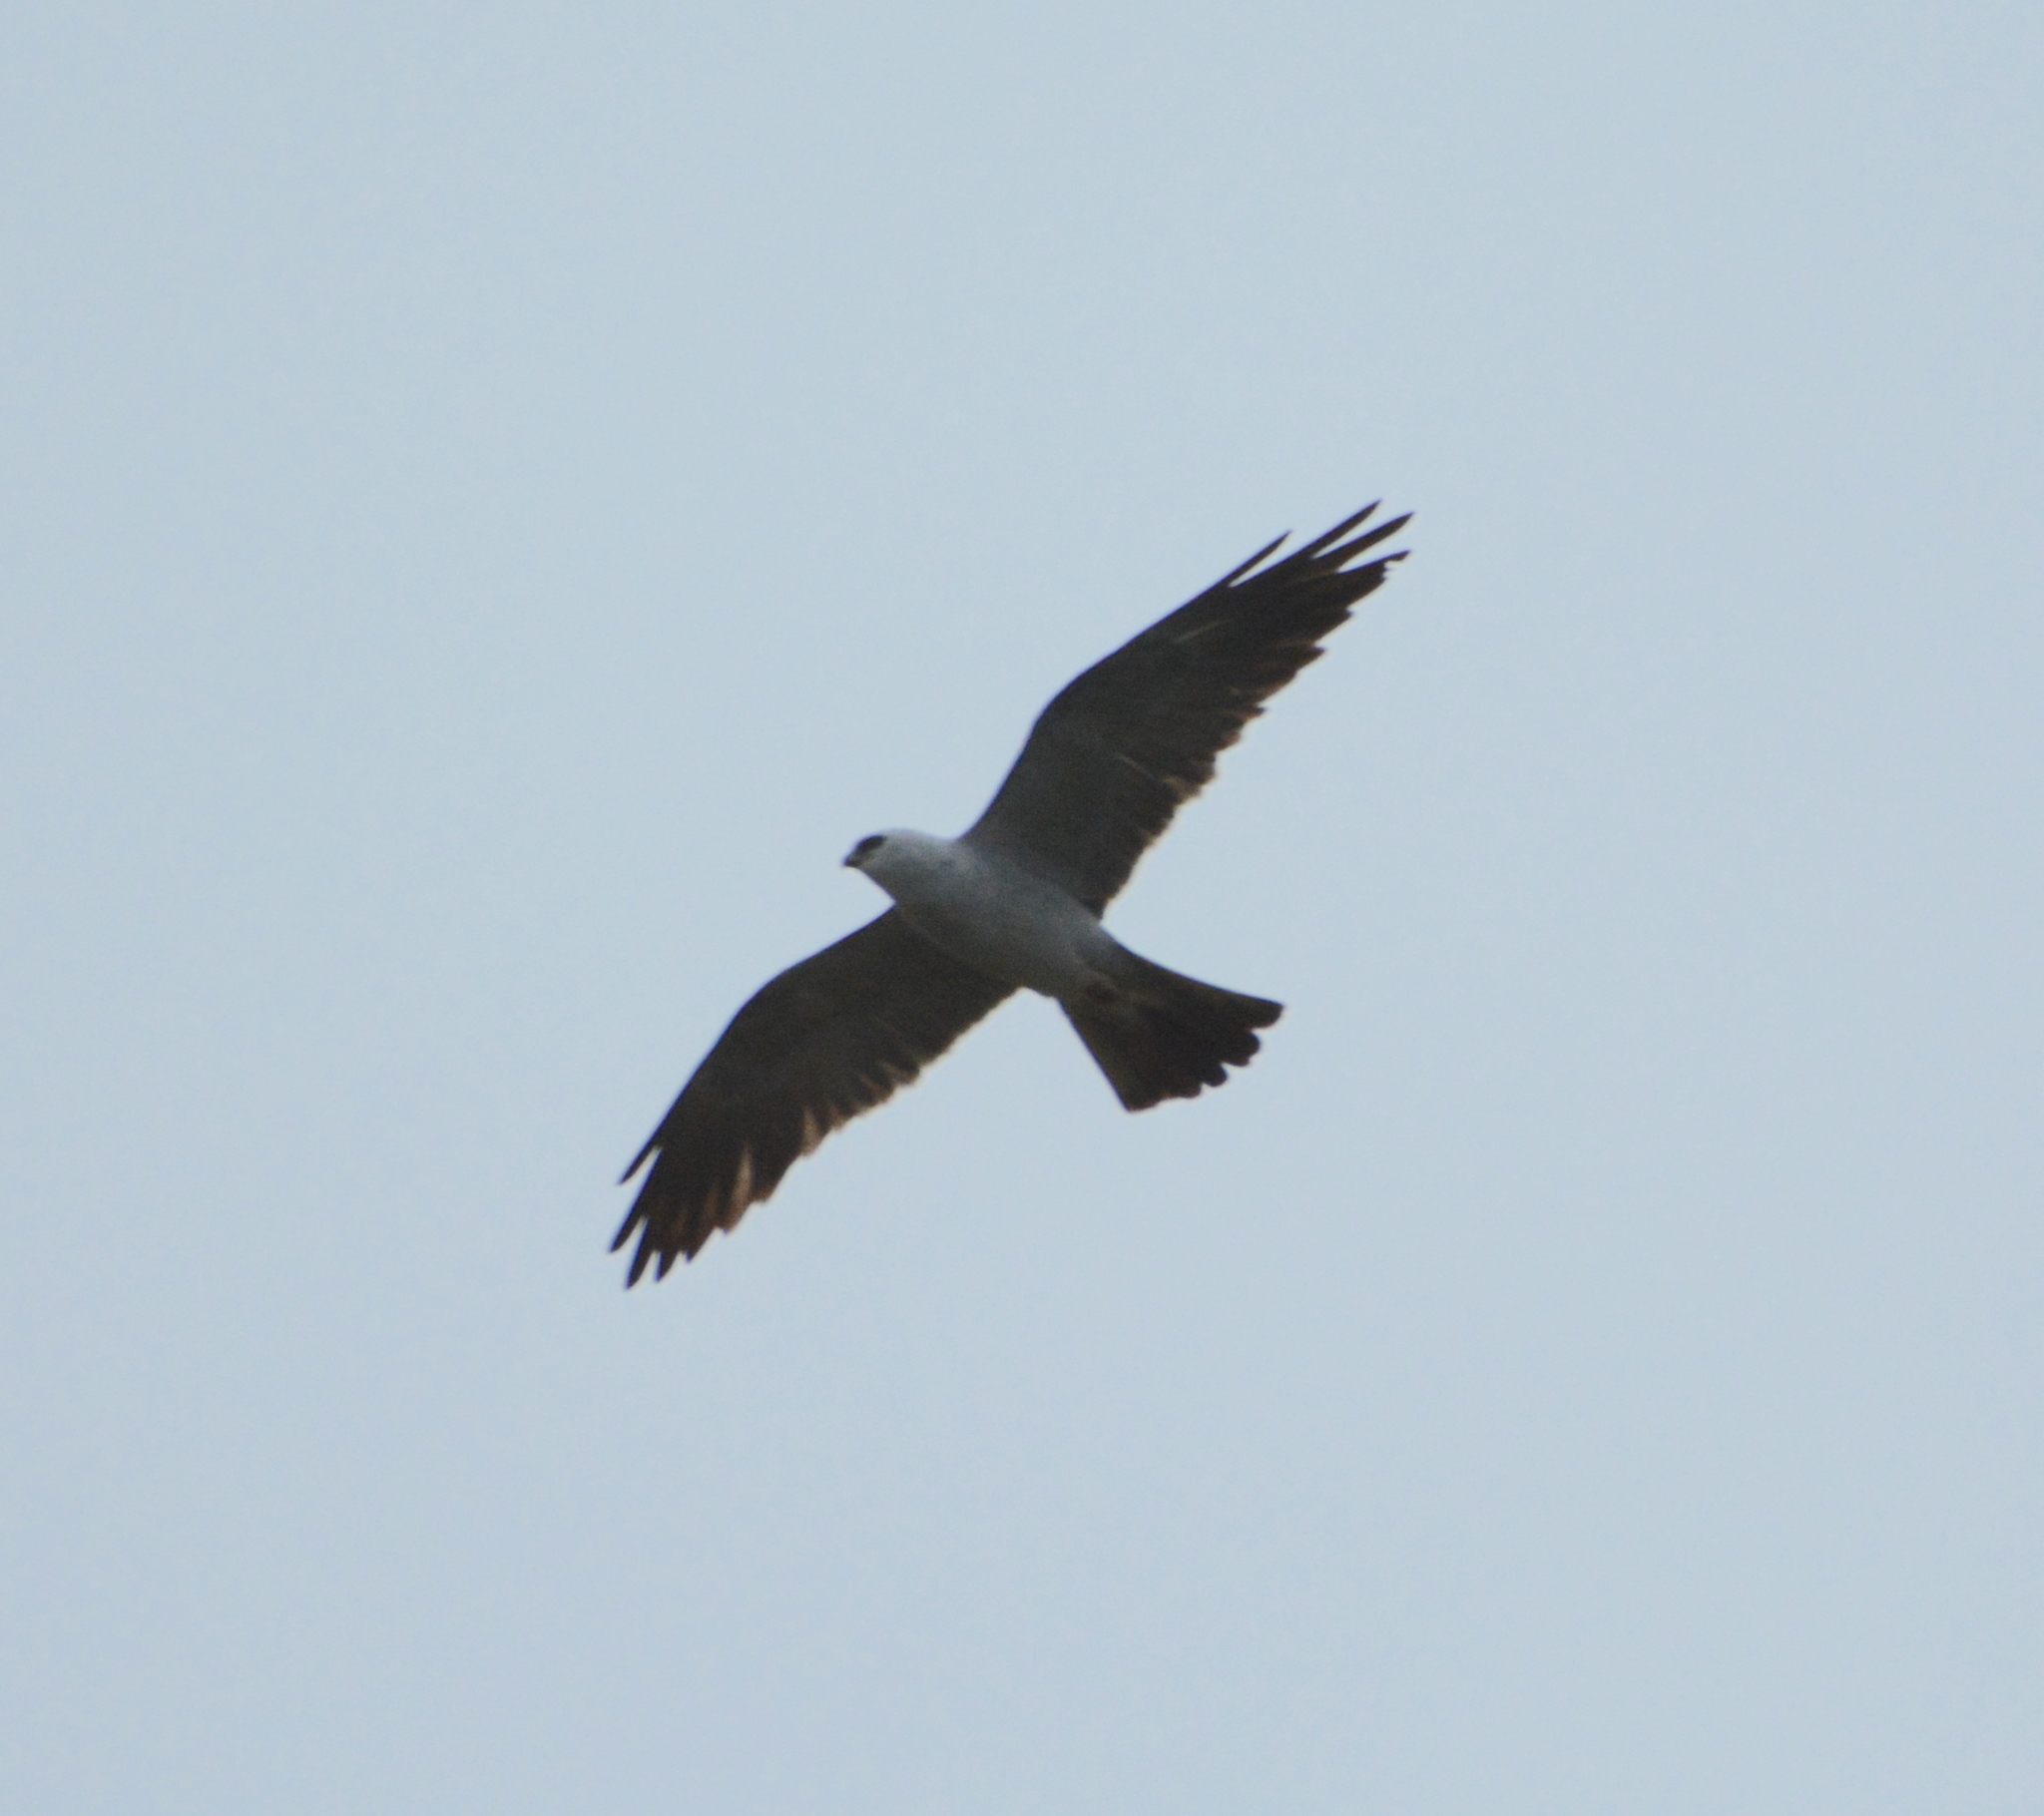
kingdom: Animalia
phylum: Chordata
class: Aves
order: Accipitriformes
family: Accipitridae
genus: Ictinia
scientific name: Ictinia mississippiensis
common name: Mississippi kite
